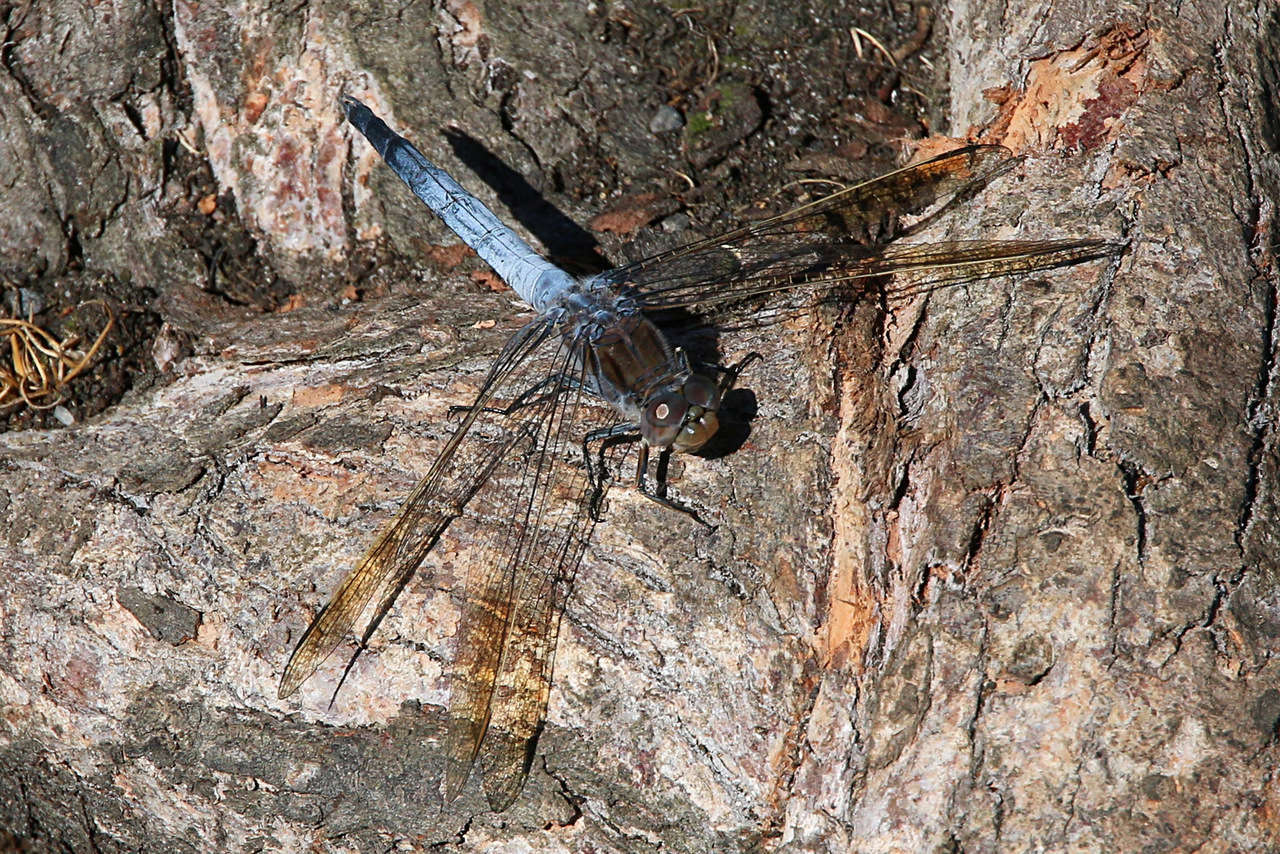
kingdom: Animalia
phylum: Arthropoda
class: Insecta
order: Odonata
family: Libellulidae
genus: Orthetrum
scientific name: Orthetrum caledonicum
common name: Blue skimmer
